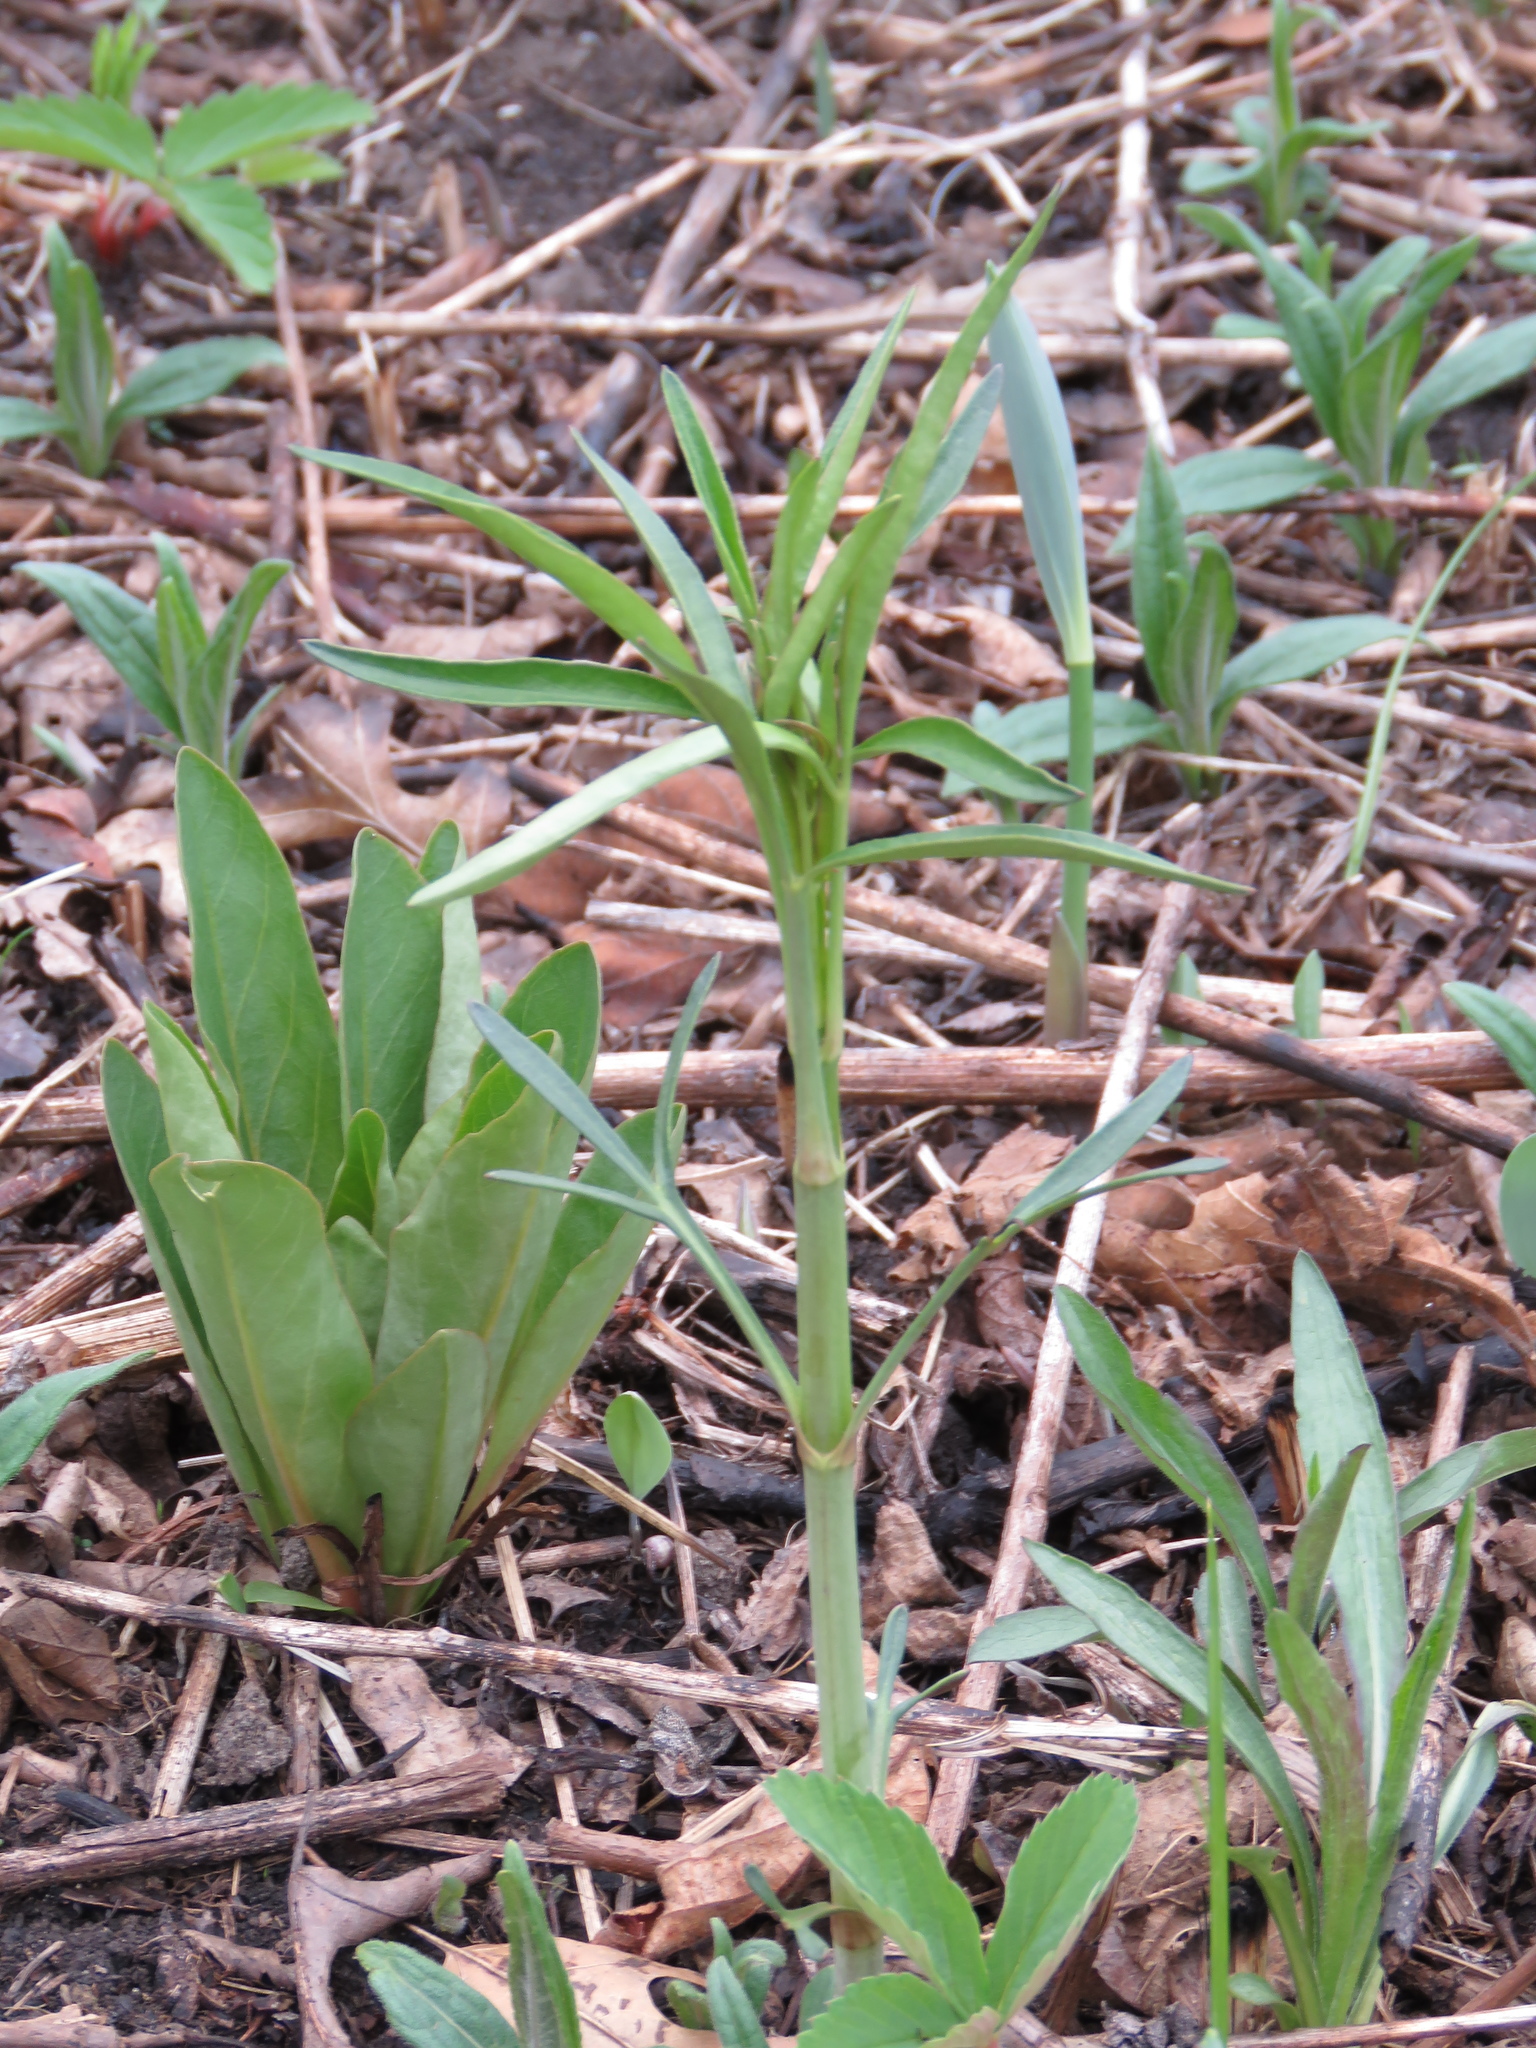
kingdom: Plantae
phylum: Tracheophyta
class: Magnoliopsida
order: Asterales
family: Asteraceae
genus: Coreopsis
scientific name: Coreopsis lanceolata
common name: Garden coreopsis
